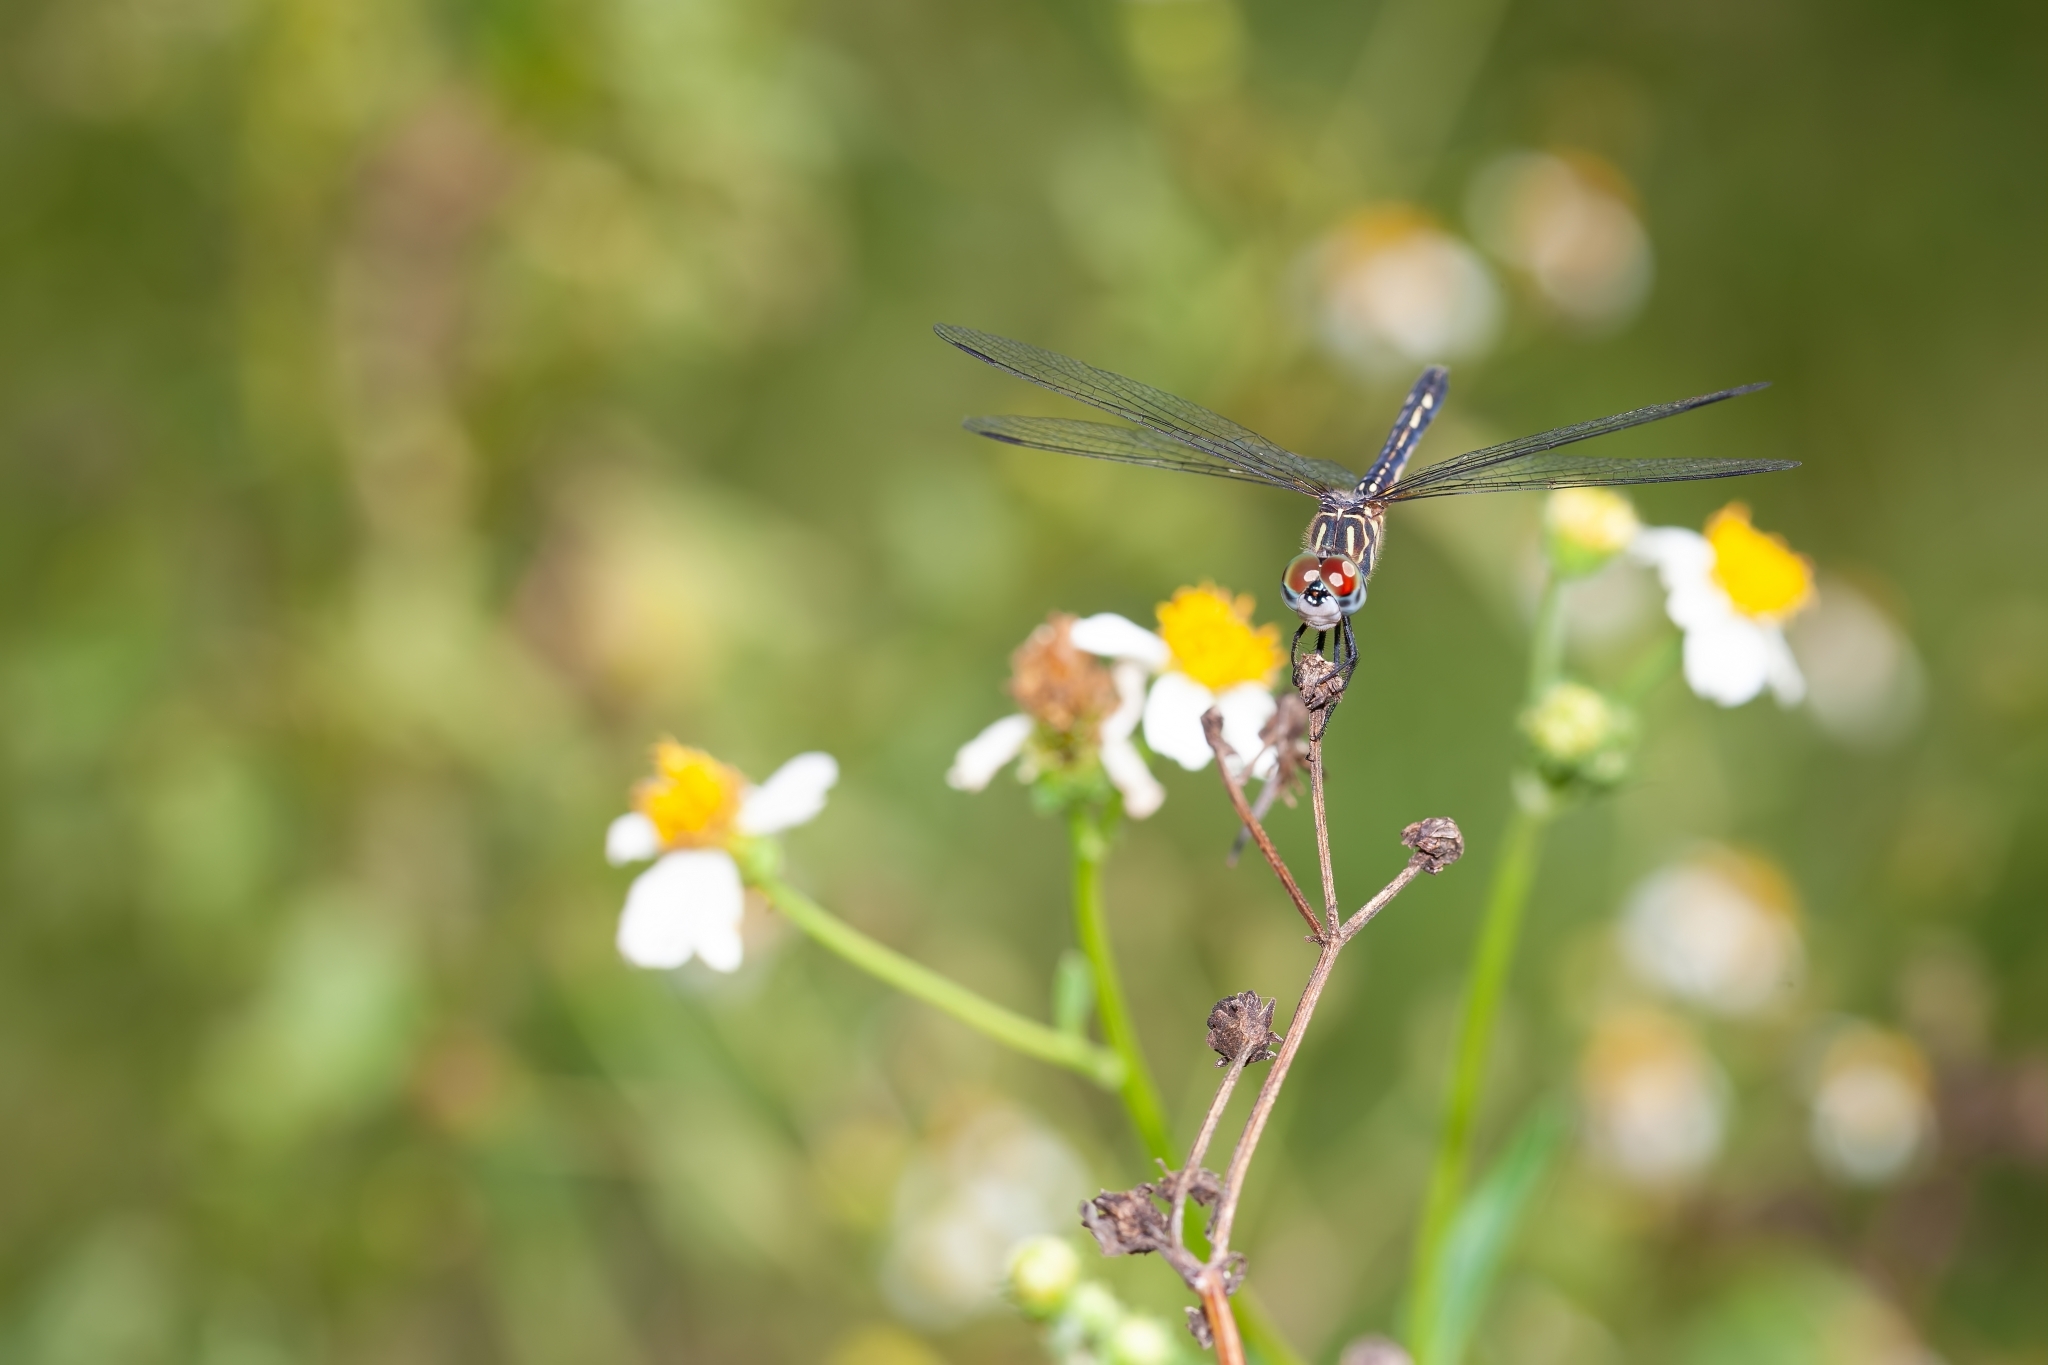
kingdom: Animalia
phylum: Arthropoda
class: Insecta
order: Odonata
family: Libellulidae
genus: Pachydiplax
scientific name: Pachydiplax longipennis
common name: Blue dasher
